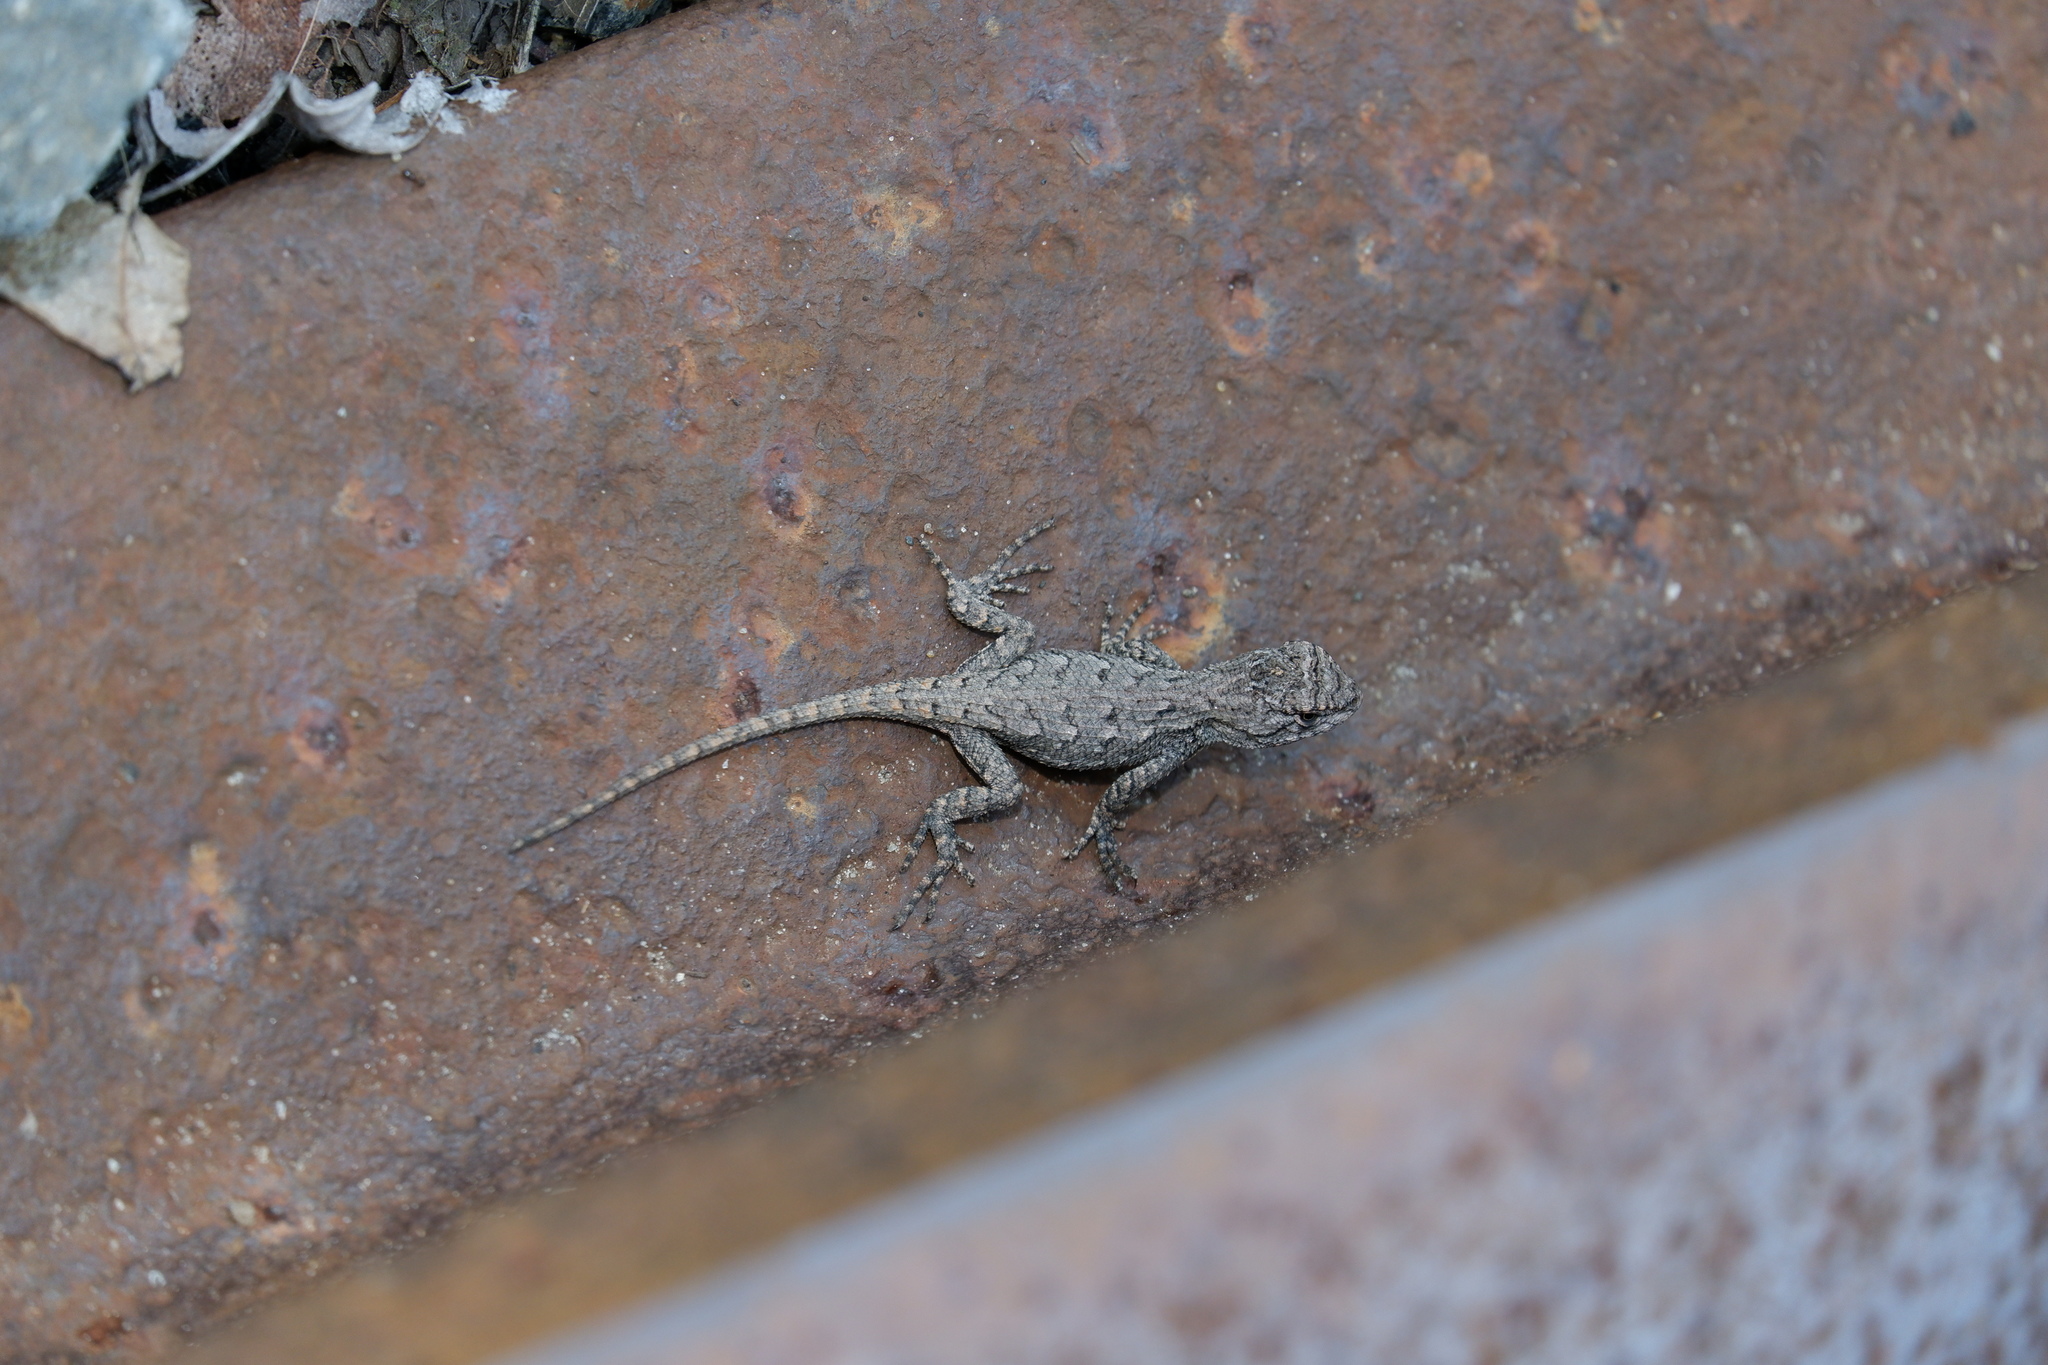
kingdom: Animalia
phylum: Chordata
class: Squamata
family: Phrynosomatidae
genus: Sceloporus
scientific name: Sceloporus undulatus
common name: Eastern fence lizard
